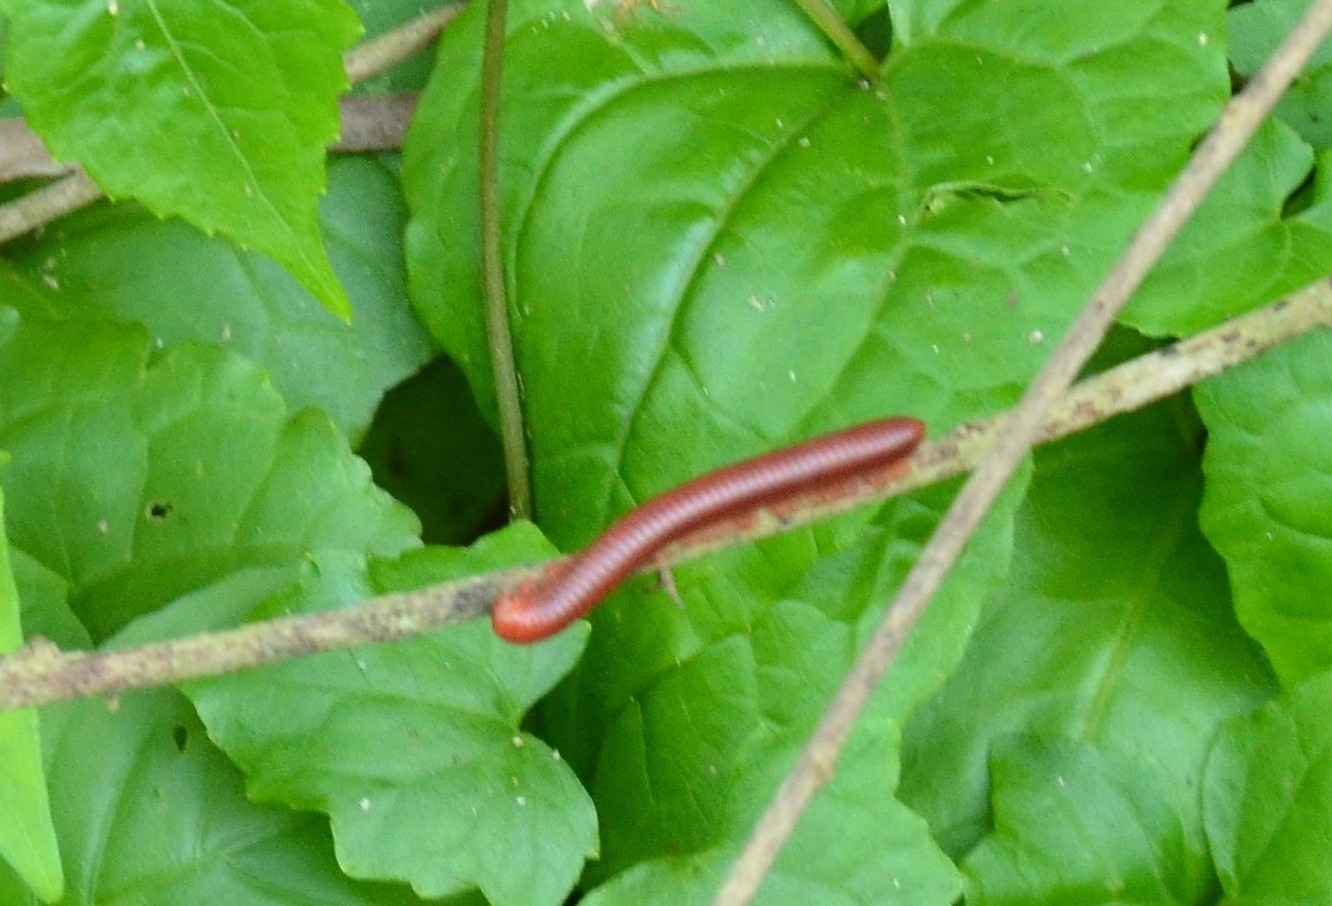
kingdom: Animalia
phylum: Arthropoda
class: Diplopoda
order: Spirobolida
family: Pachybolidae
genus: Trigoniulus
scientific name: Trigoniulus corallinus
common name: Millipede
